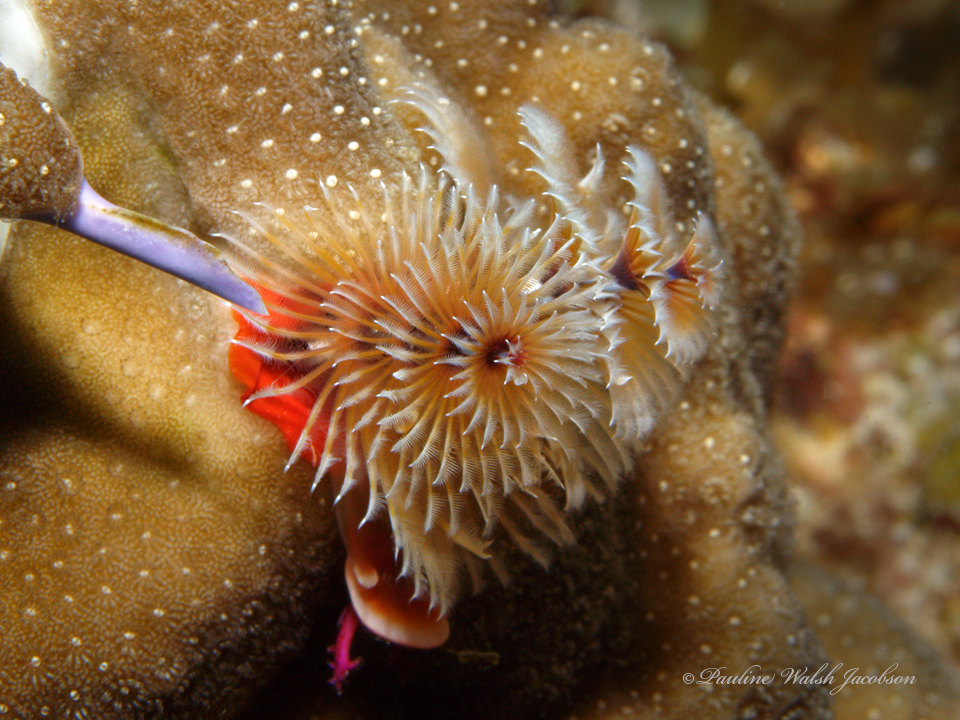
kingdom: Animalia
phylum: Annelida
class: Polychaeta
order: Sabellida
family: Serpulidae
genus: Spirobranchus
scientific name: Spirobranchus giganteus
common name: Christmas tree worm
